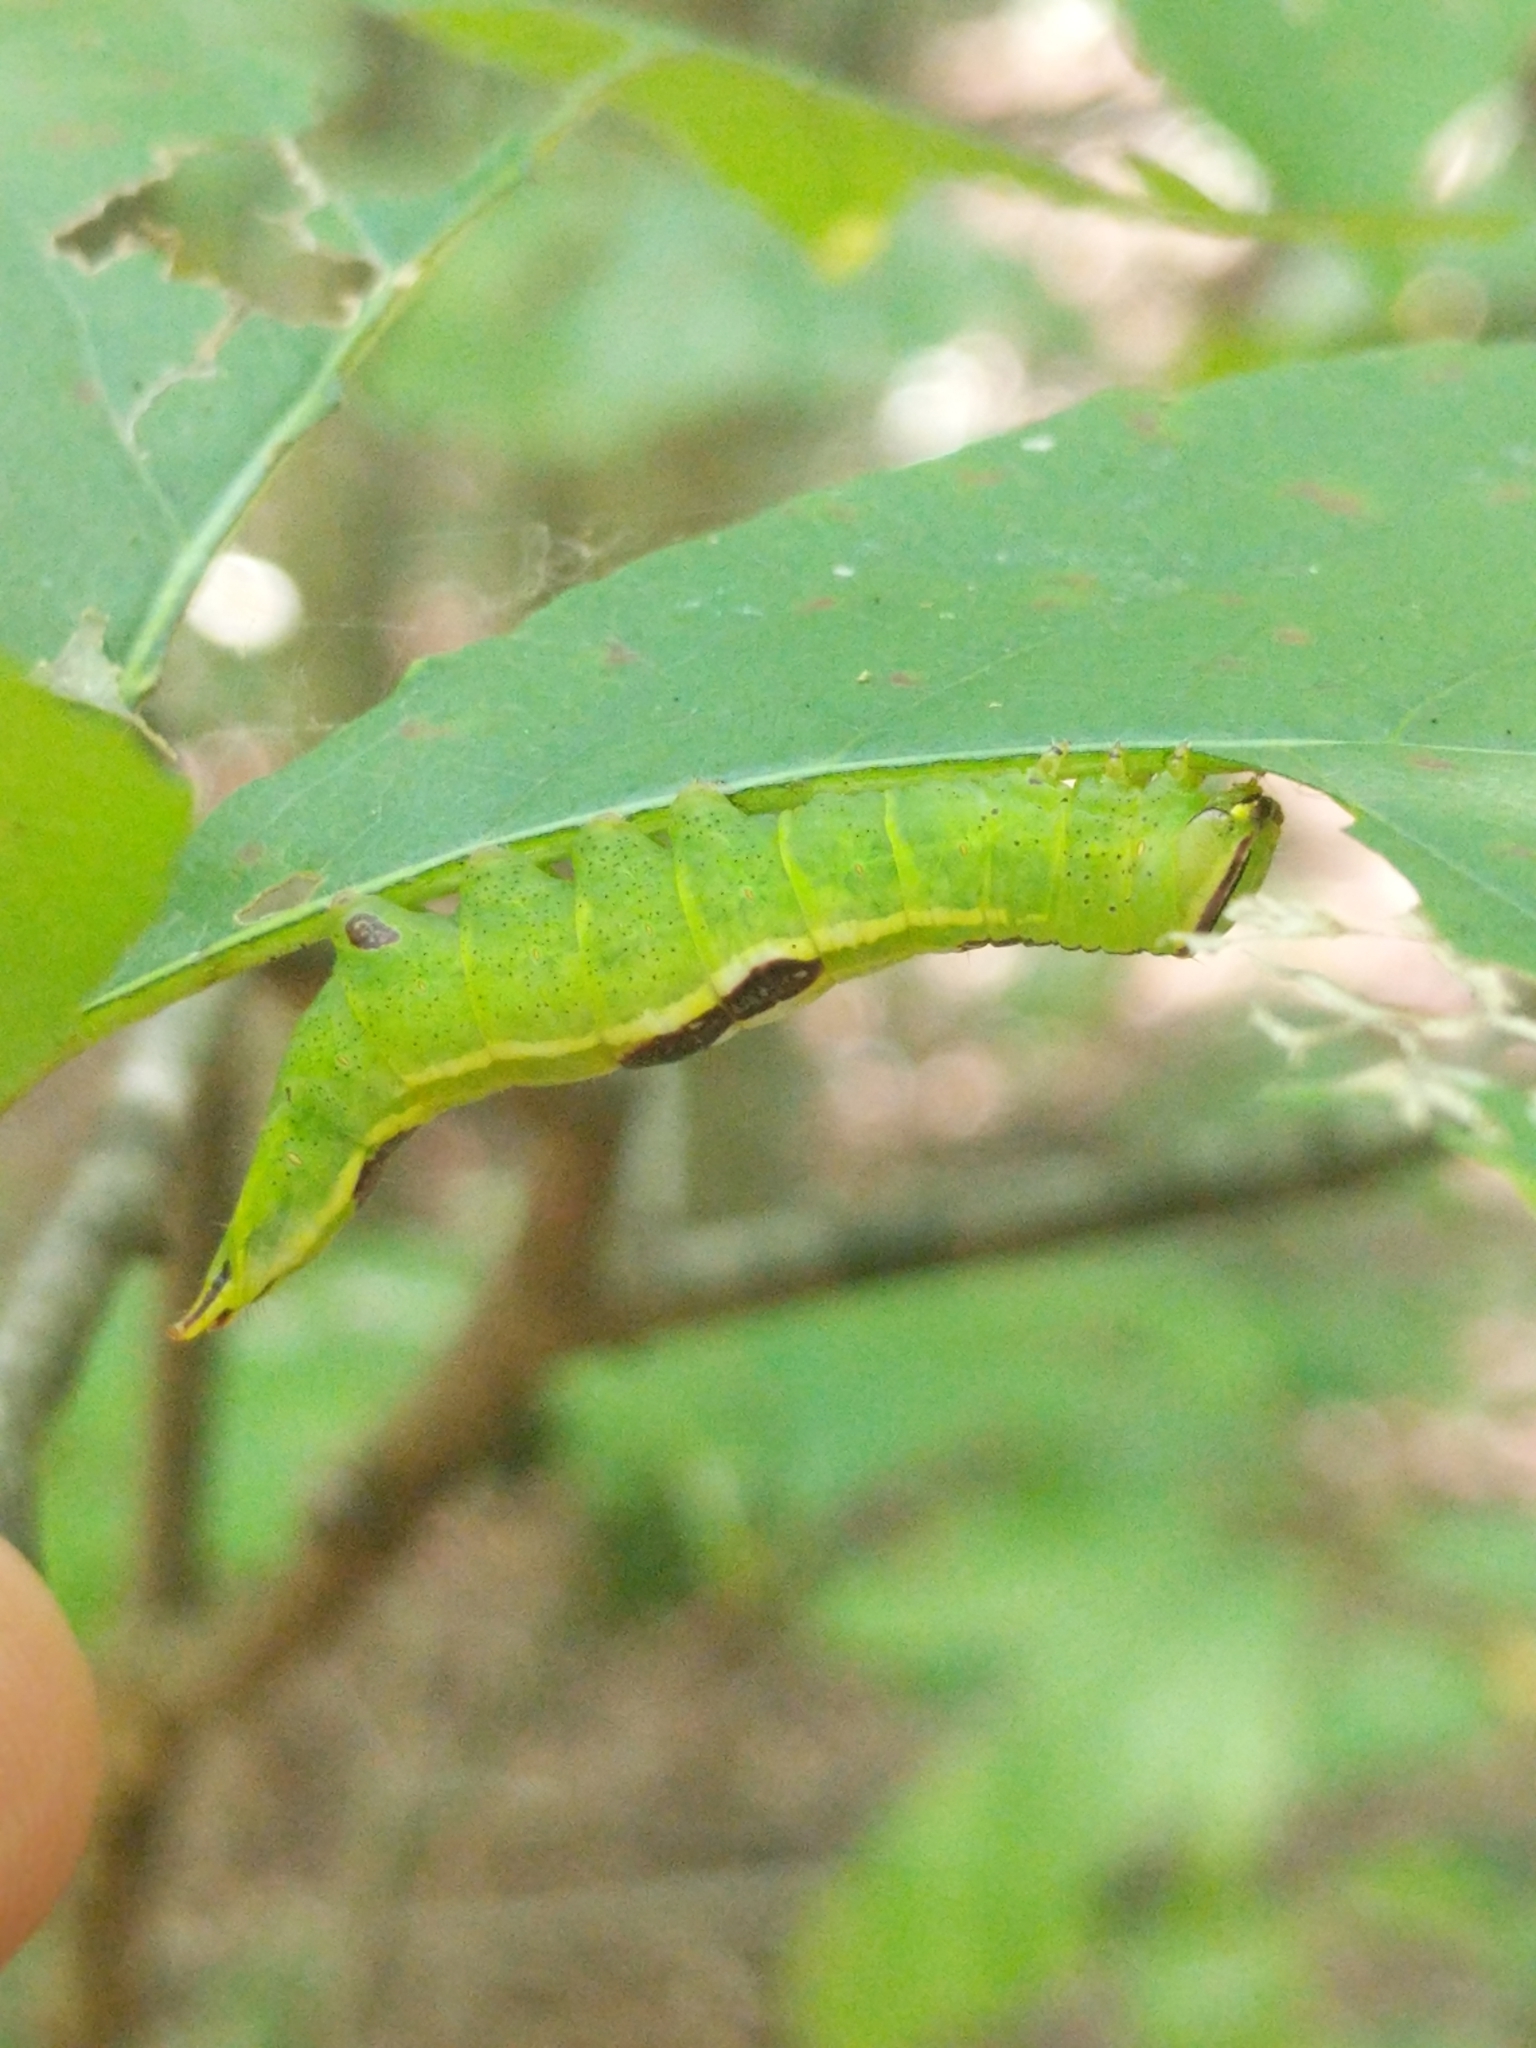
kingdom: Animalia
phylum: Arthropoda
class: Insecta
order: Lepidoptera
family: Notodontidae
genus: Disphragis
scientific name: Disphragis Cecrita guttivitta
